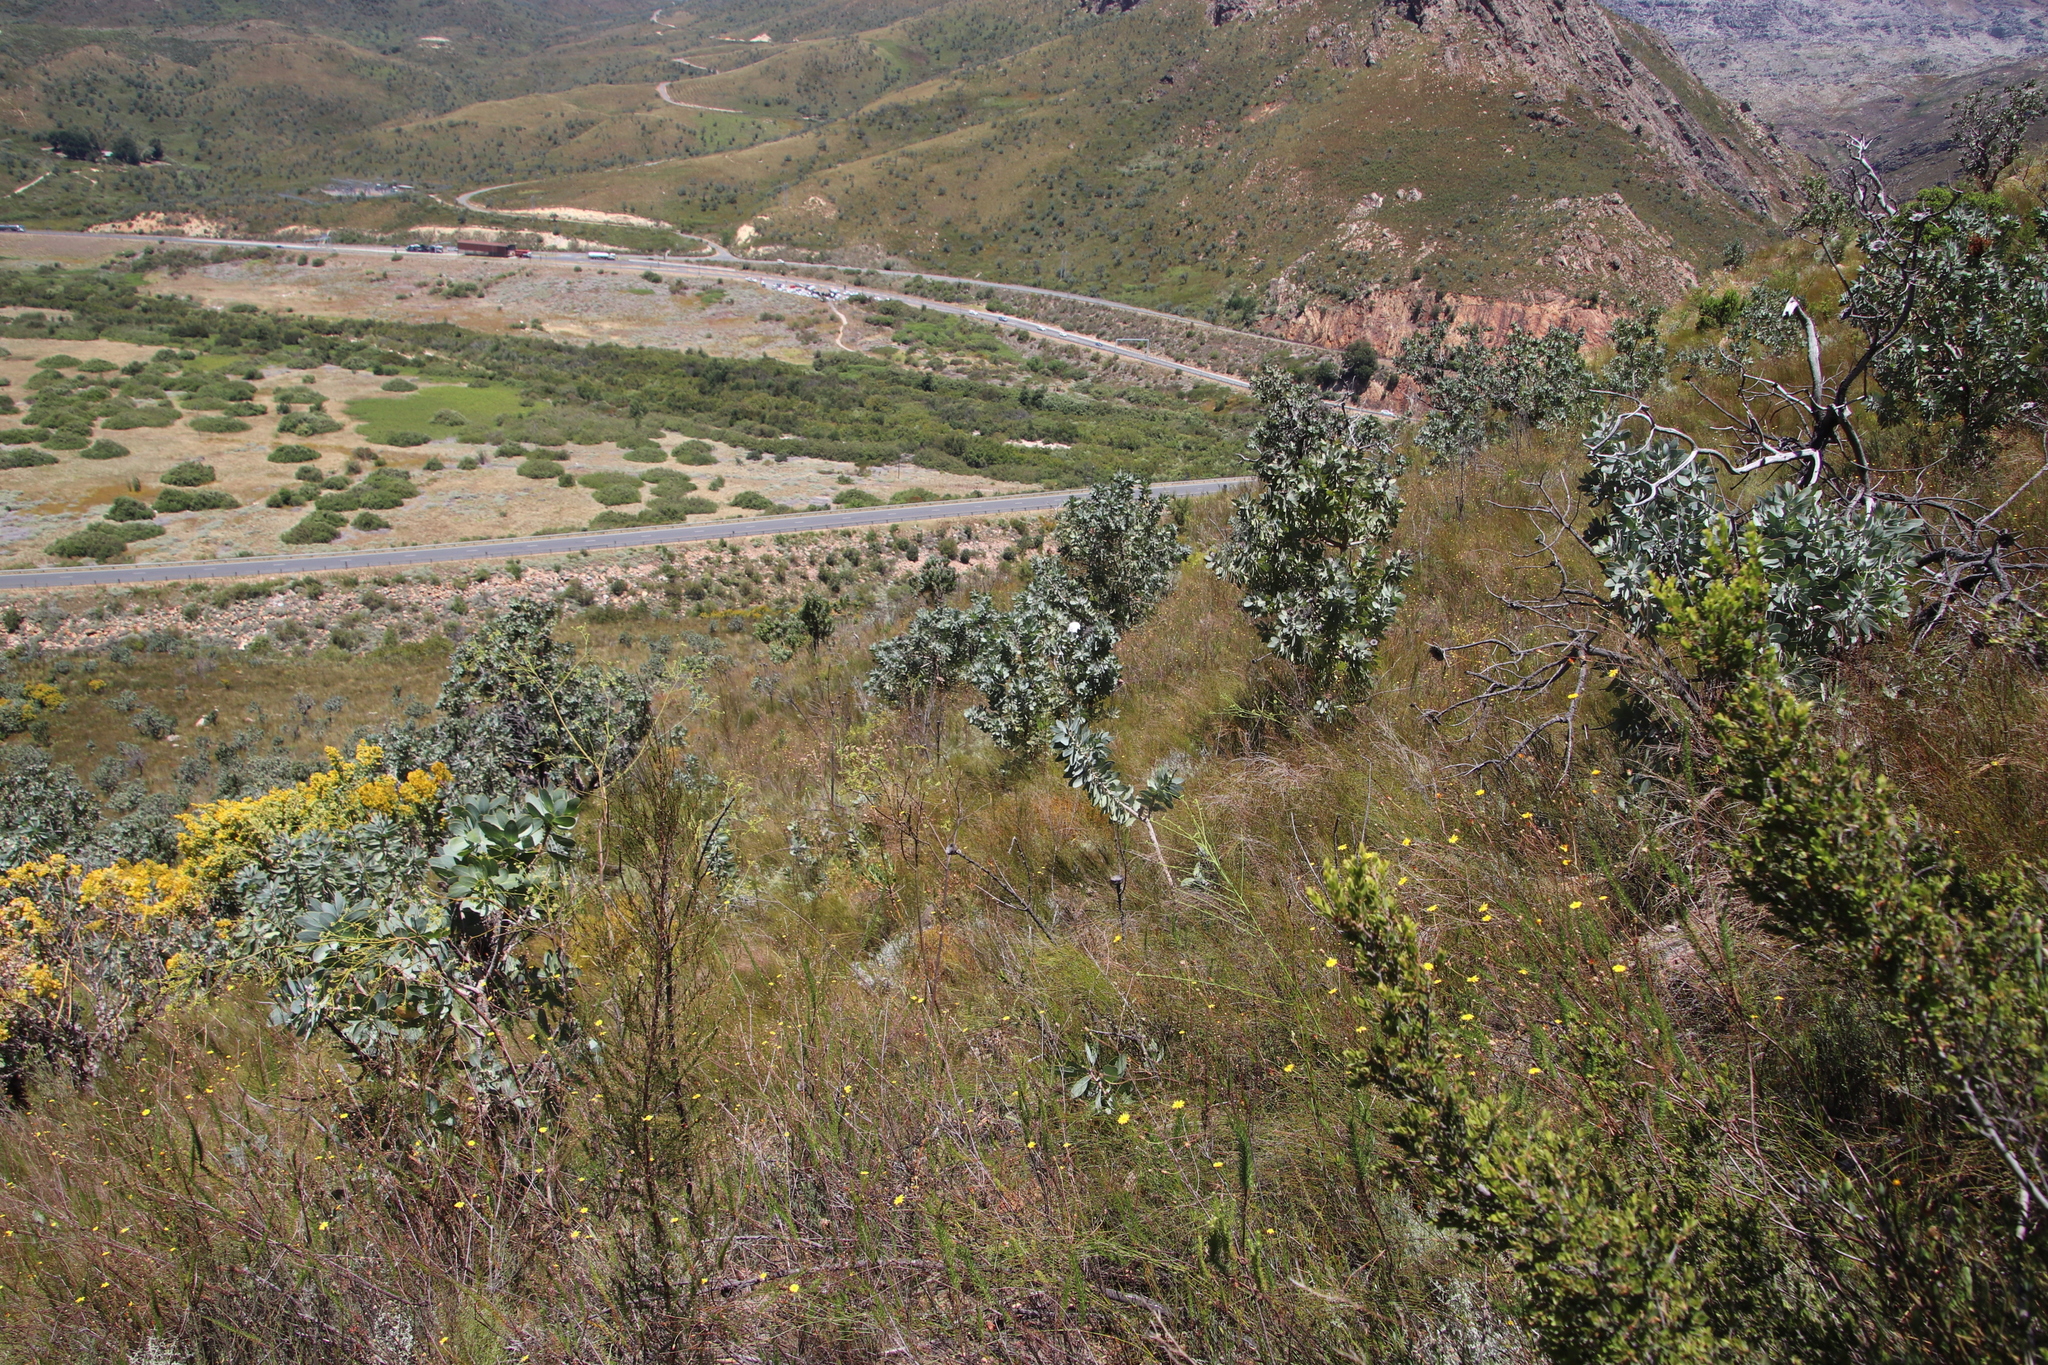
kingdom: Plantae
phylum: Tracheophyta
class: Magnoliopsida
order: Proteales
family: Proteaceae
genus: Protea
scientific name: Protea nitida
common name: Tree protea
